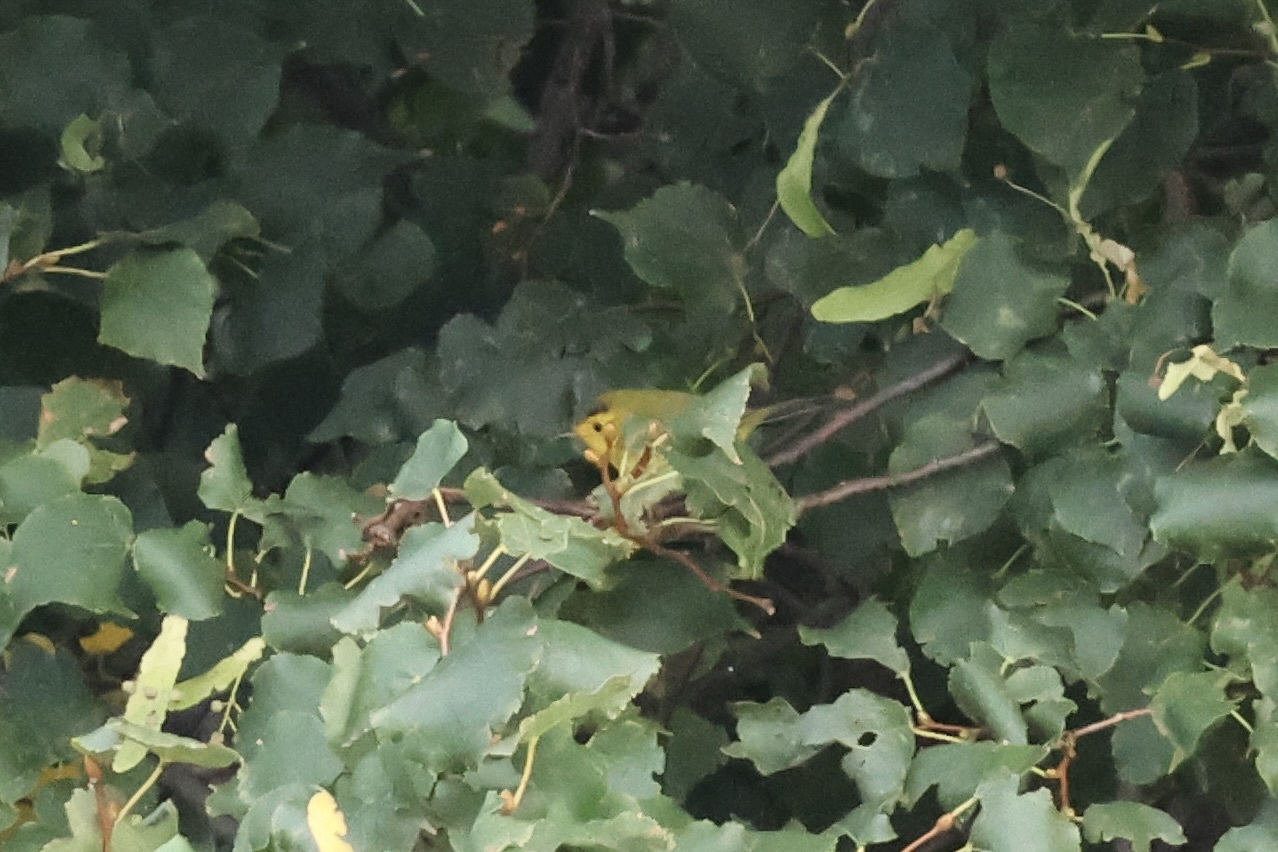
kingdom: Animalia
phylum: Chordata
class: Aves
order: Passeriformes
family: Parulidae
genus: Cardellina
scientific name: Cardellina pusilla
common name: Wilson's warbler
